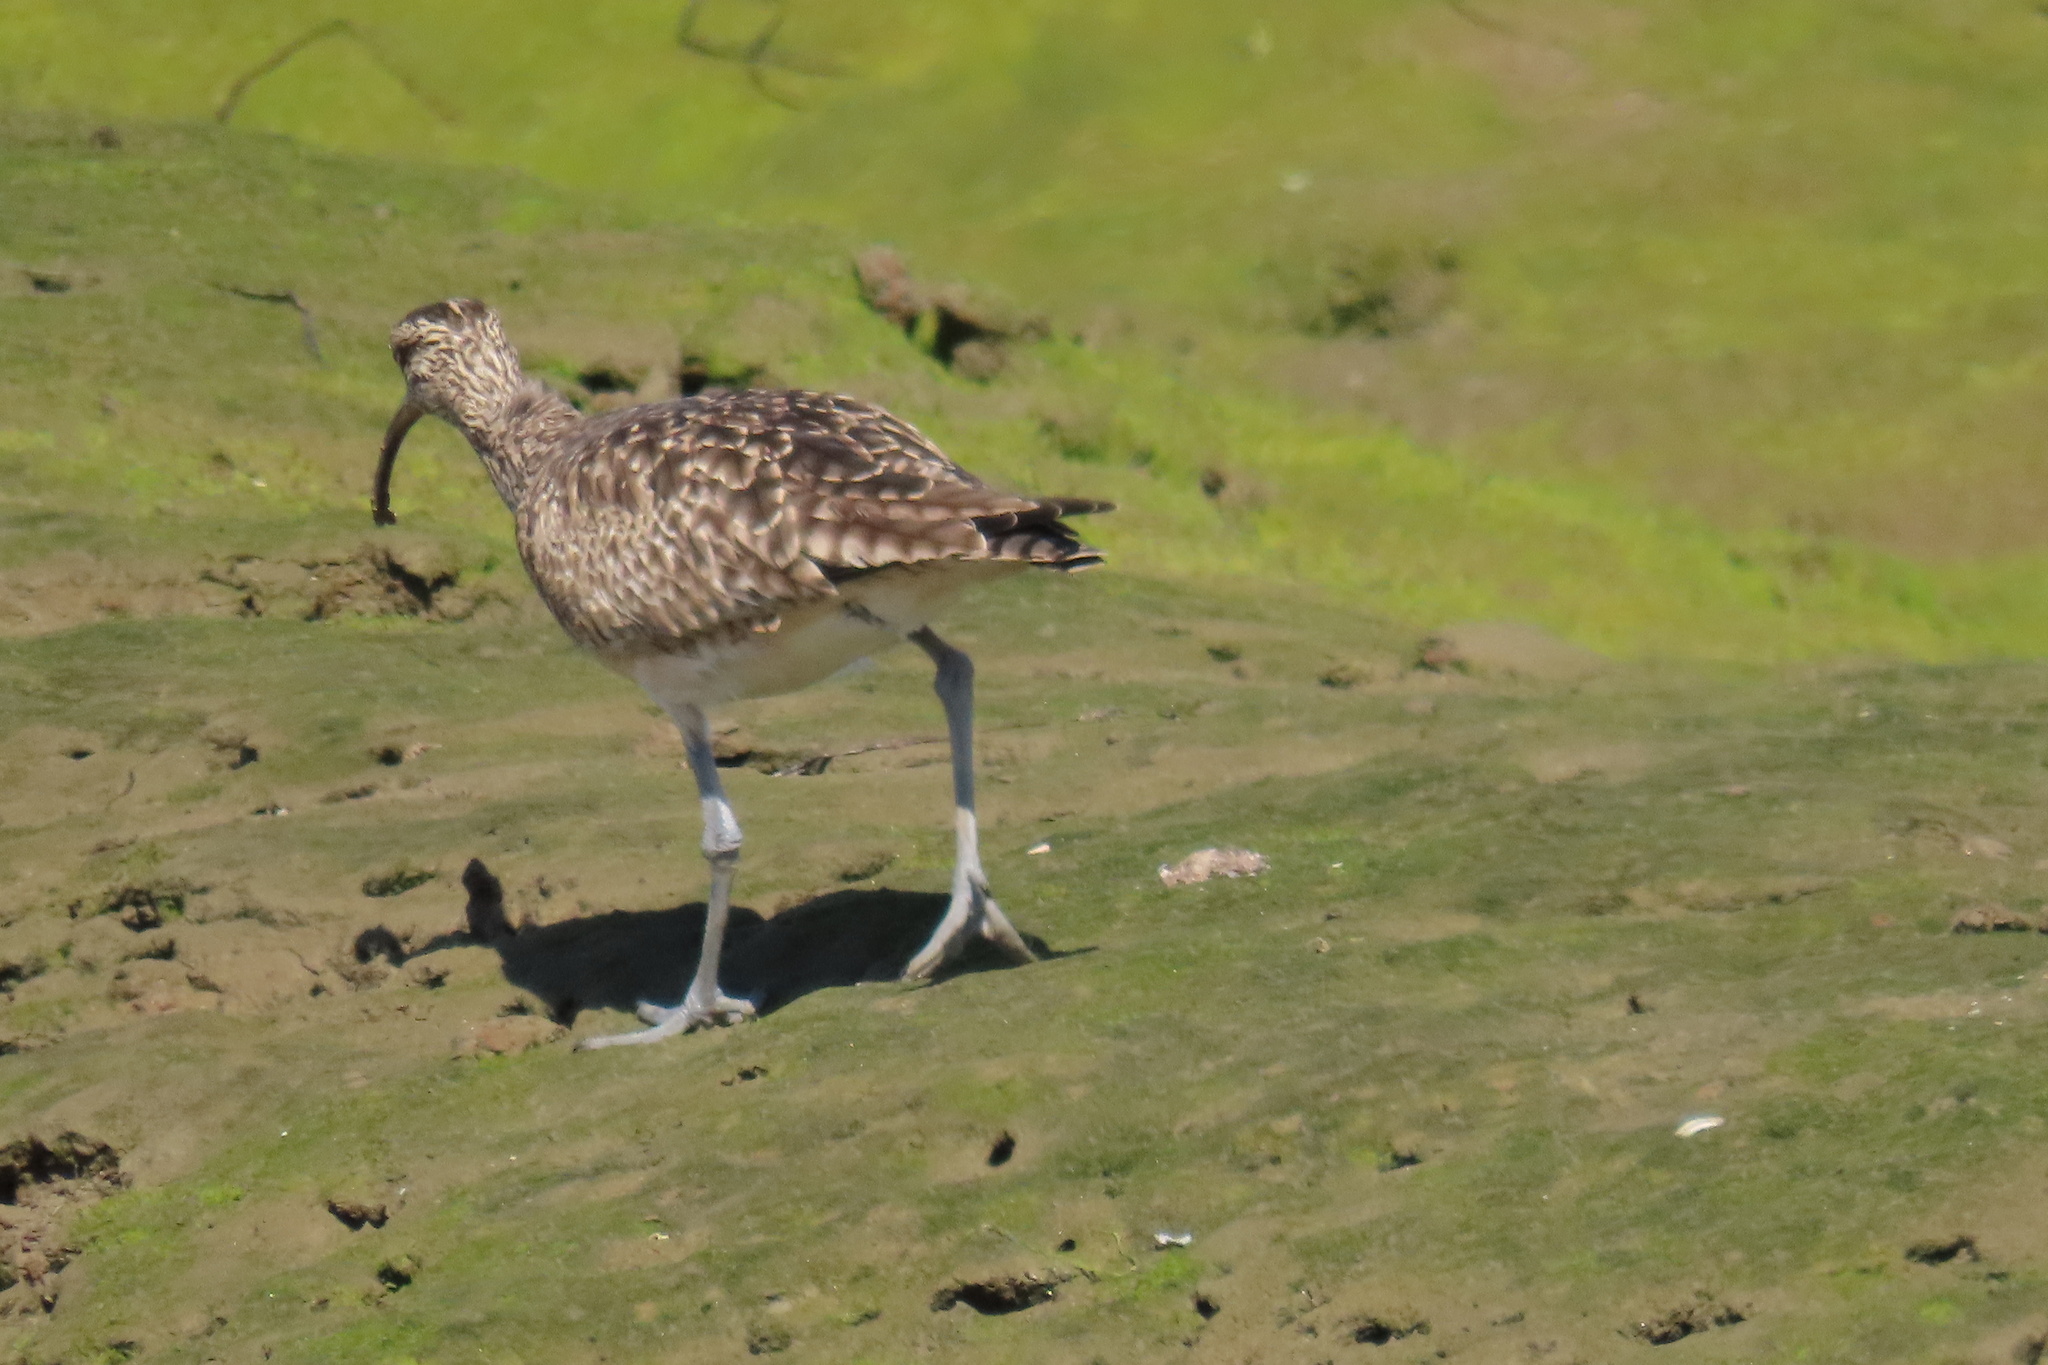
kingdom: Animalia
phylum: Chordata
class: Aves
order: Charadriiformes
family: Scolopacidae
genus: Numenius
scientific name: Numenius phaeopus
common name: Whimbrel
